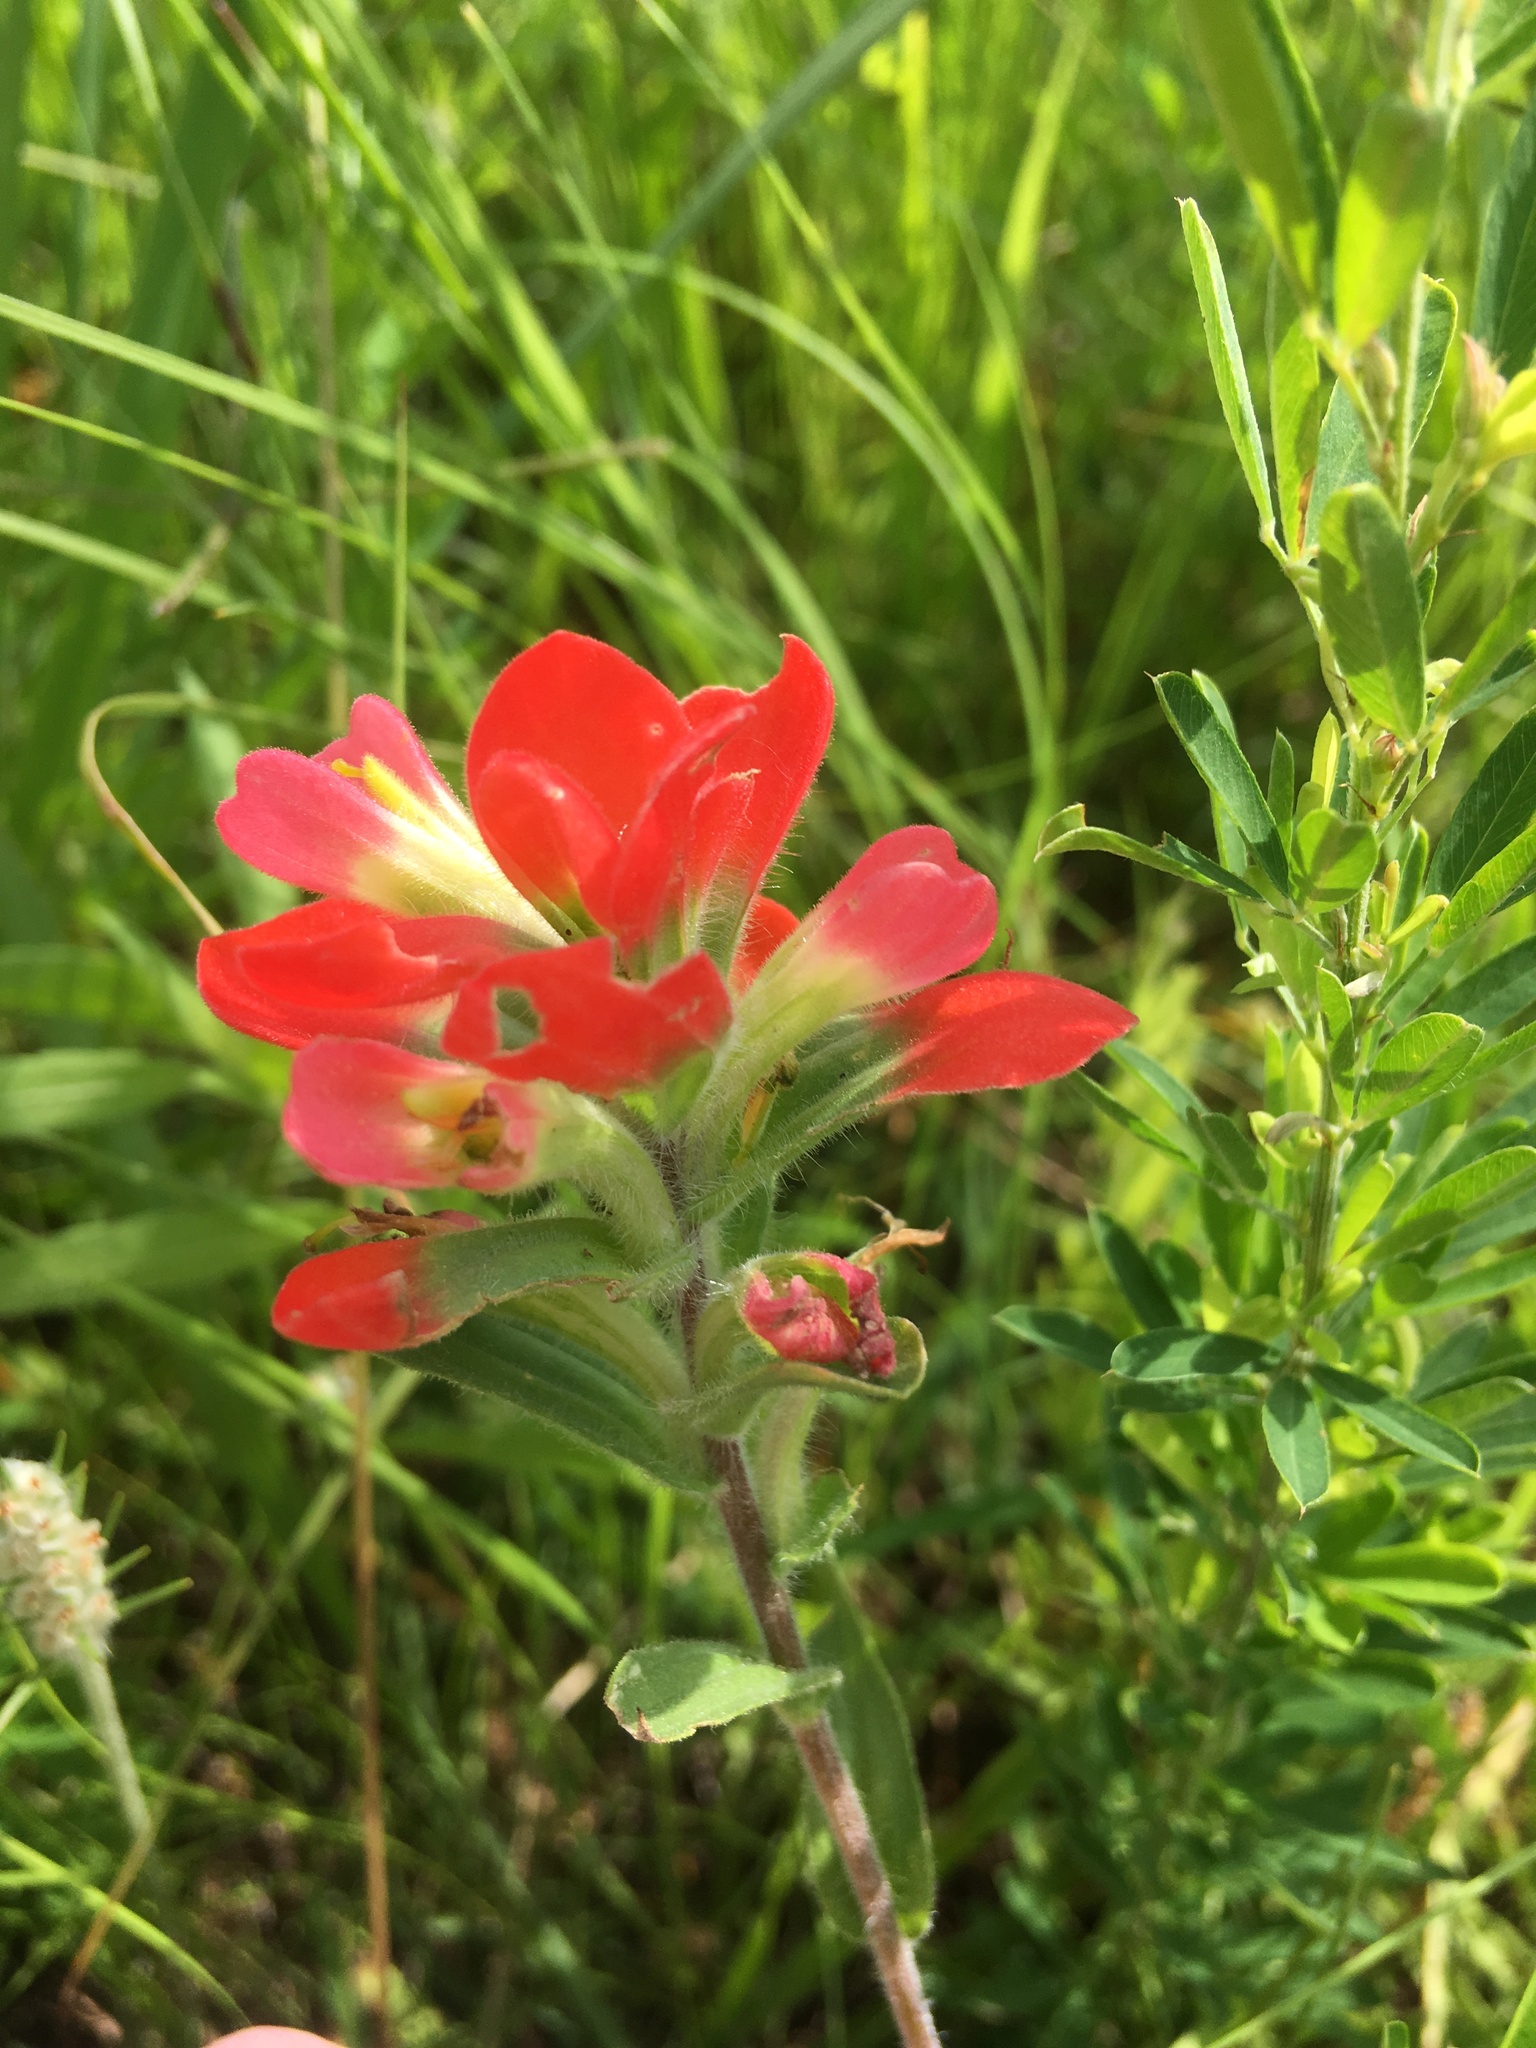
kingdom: Plantae
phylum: Tracheophyta
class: Magnoliopsida
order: Lamiales
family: Orobanchaceae
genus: Castilleja
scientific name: Castilleja indivisa
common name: Texas paintbrush
